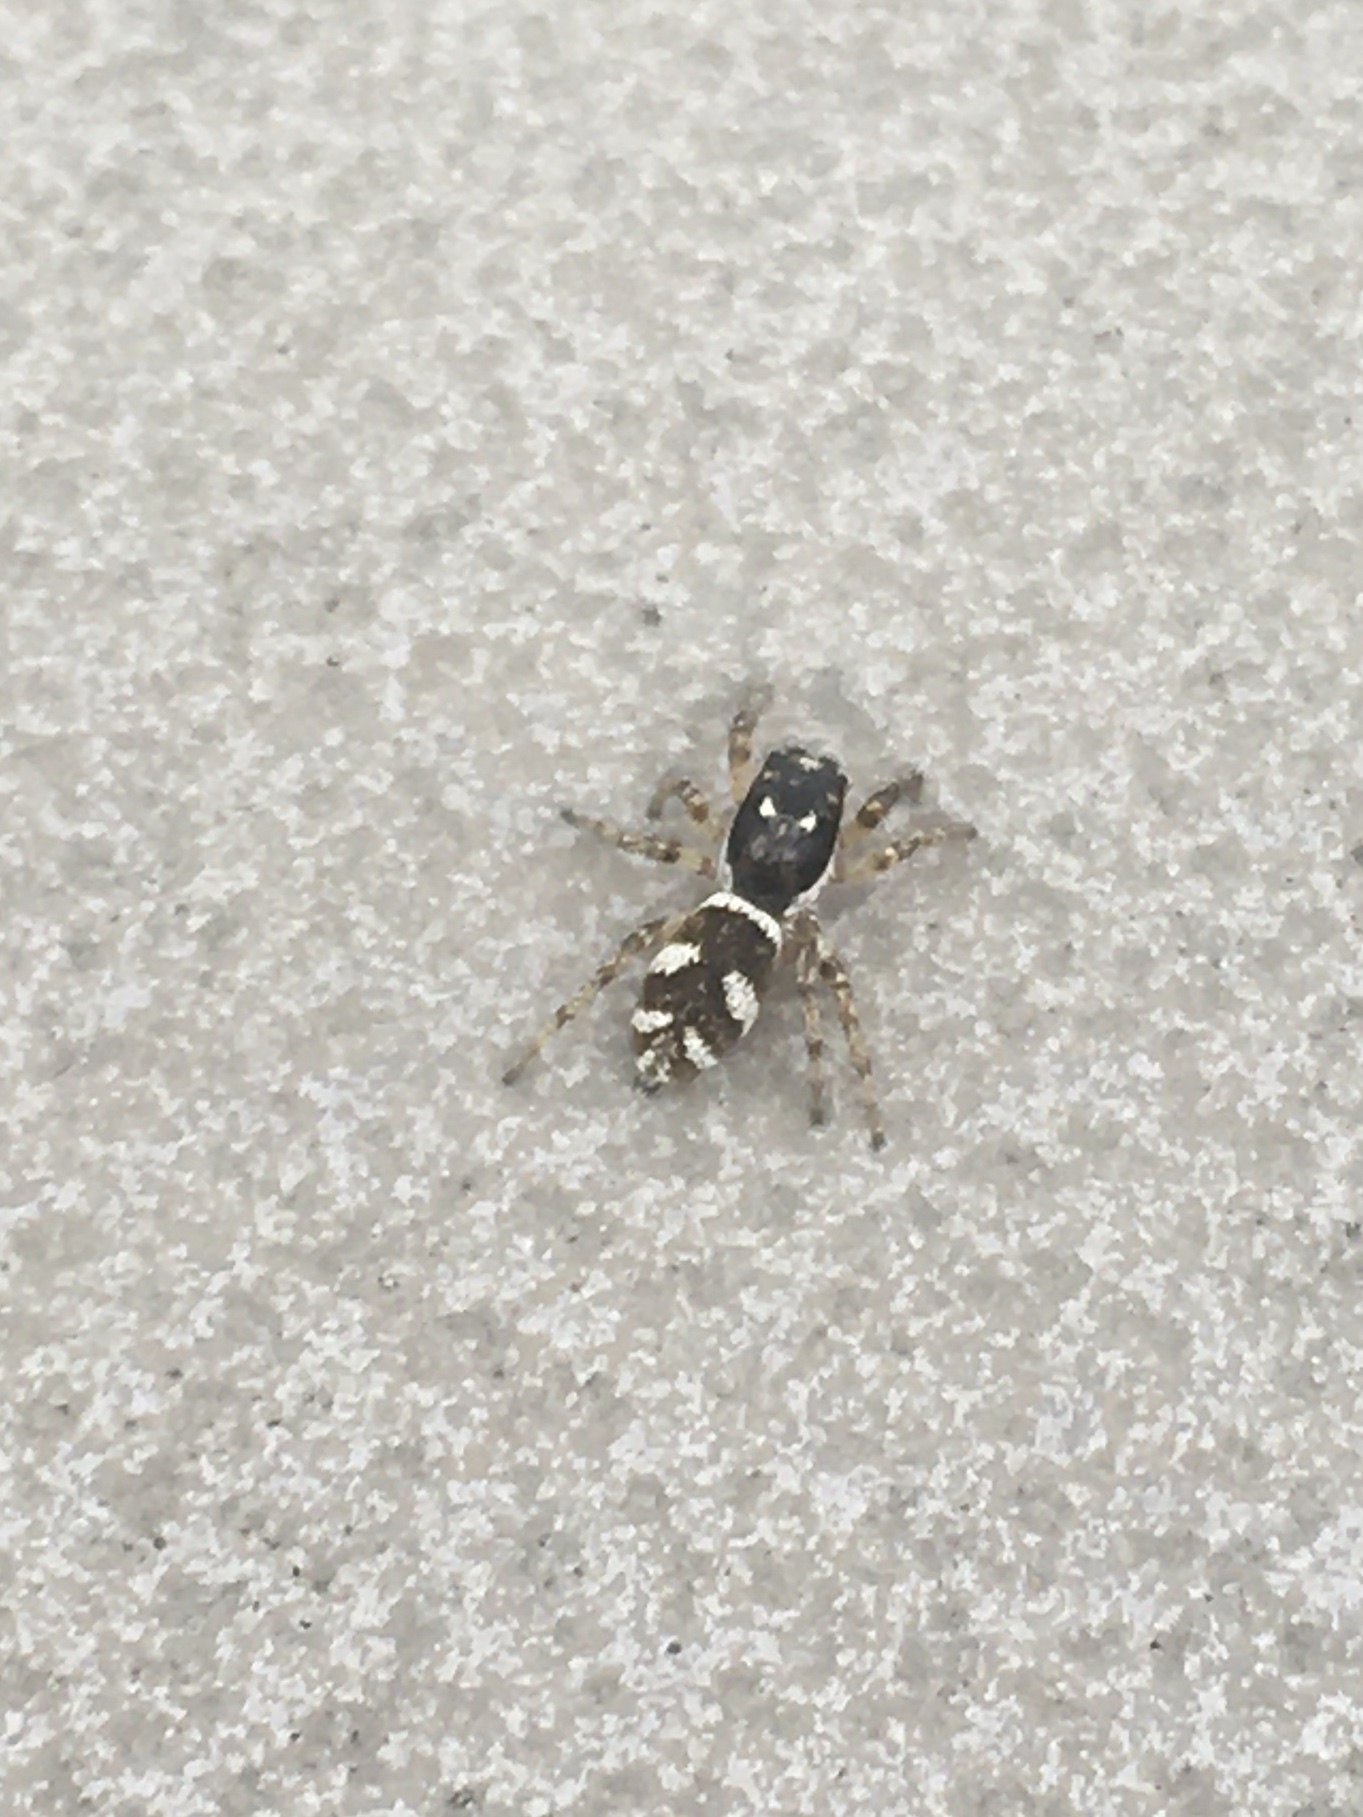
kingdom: Animalia
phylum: Arthropoda
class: Arachnida
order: Araneae
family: Salticidae
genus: Salticus
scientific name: Salticus scenicus
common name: Zebra jumper
